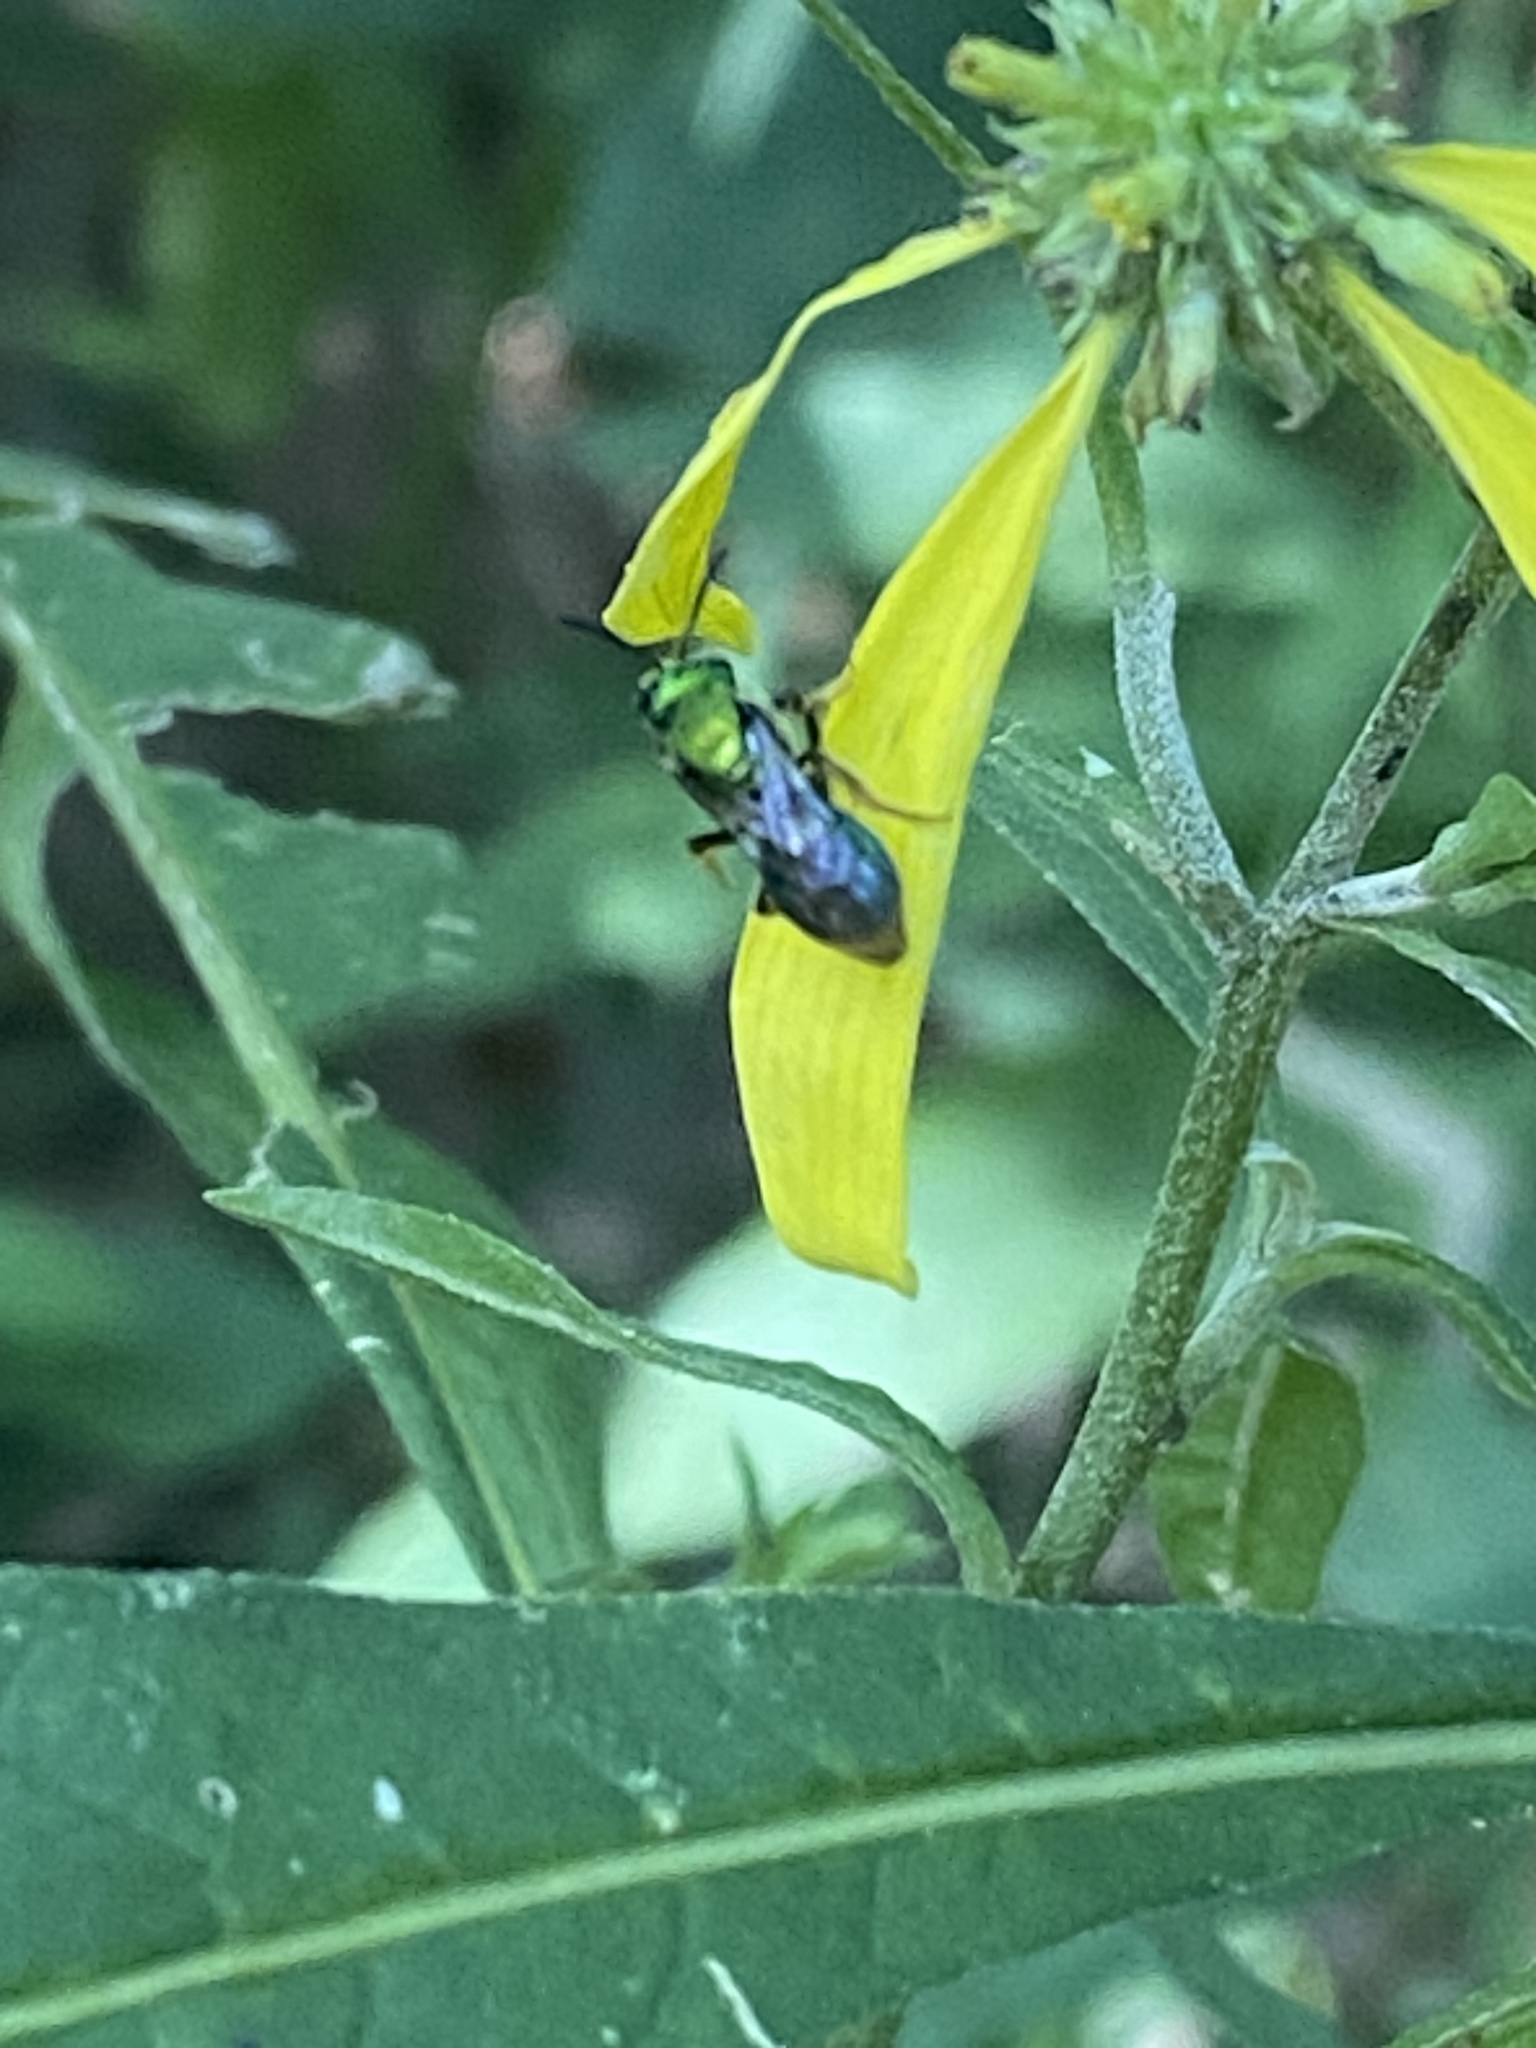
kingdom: Animalia
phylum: Arthropoda
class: Insecta
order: Hymenoptera
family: Halictidae
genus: Augochlora
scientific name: Augochlora pura
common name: Pure green sweat bee
